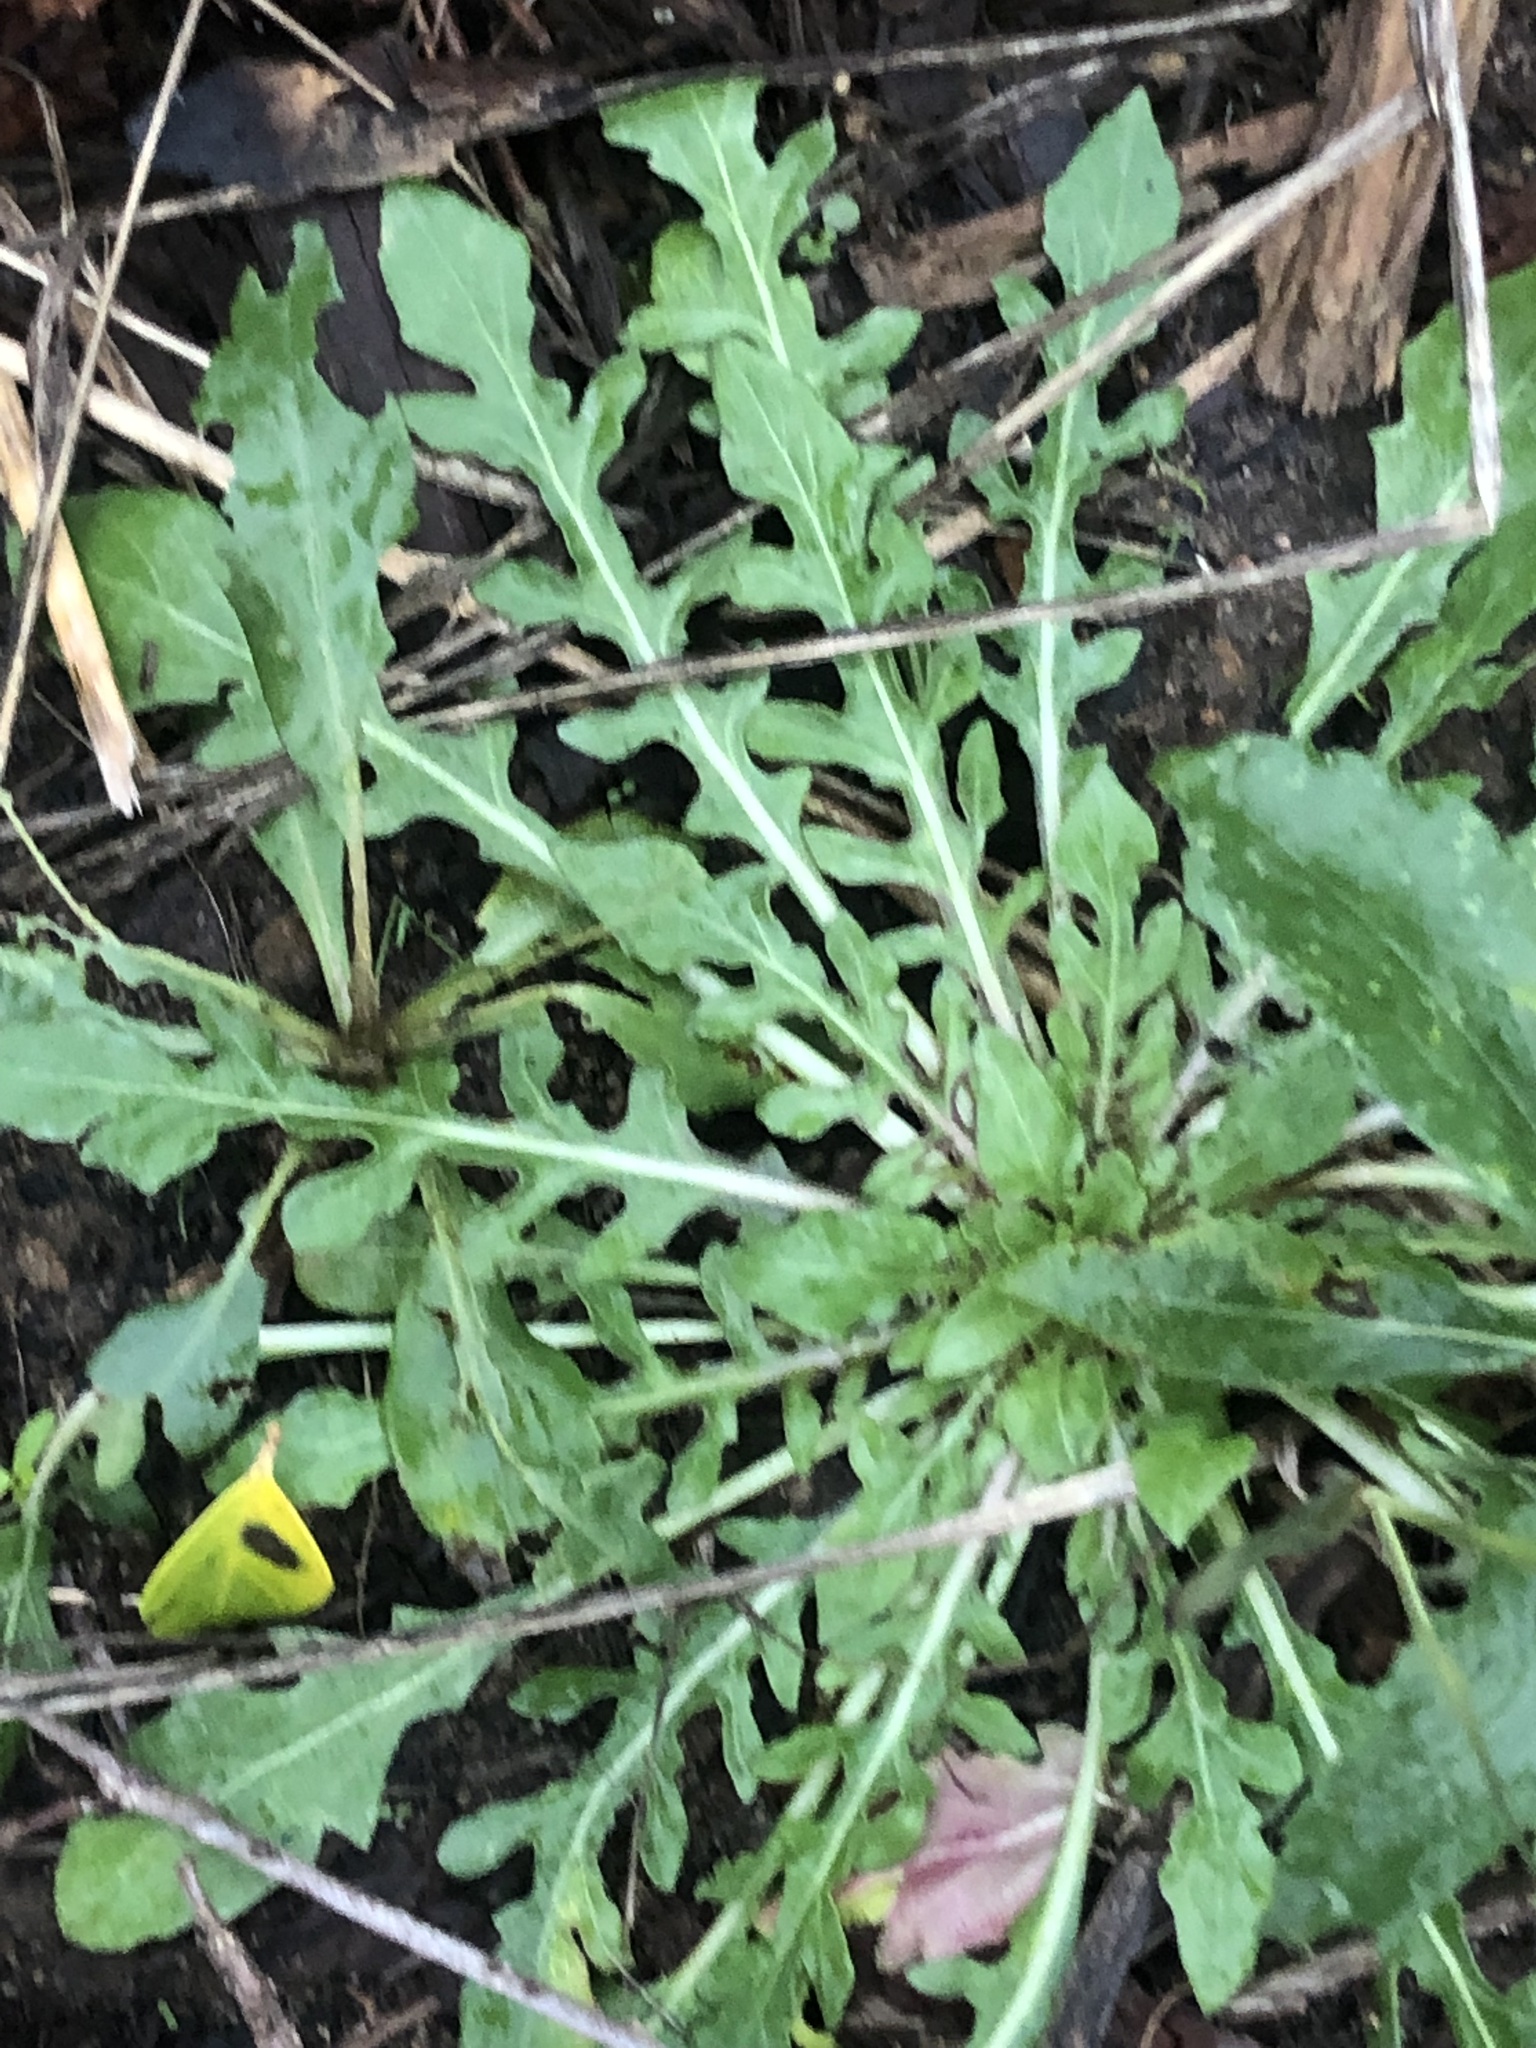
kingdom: Plantae
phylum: Tracheophyta
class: Magnoliopsida
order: Myrtales
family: Onagraceae
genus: Oenothera
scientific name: Oenothera laciniata
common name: Cut-leaved evening-primrose
